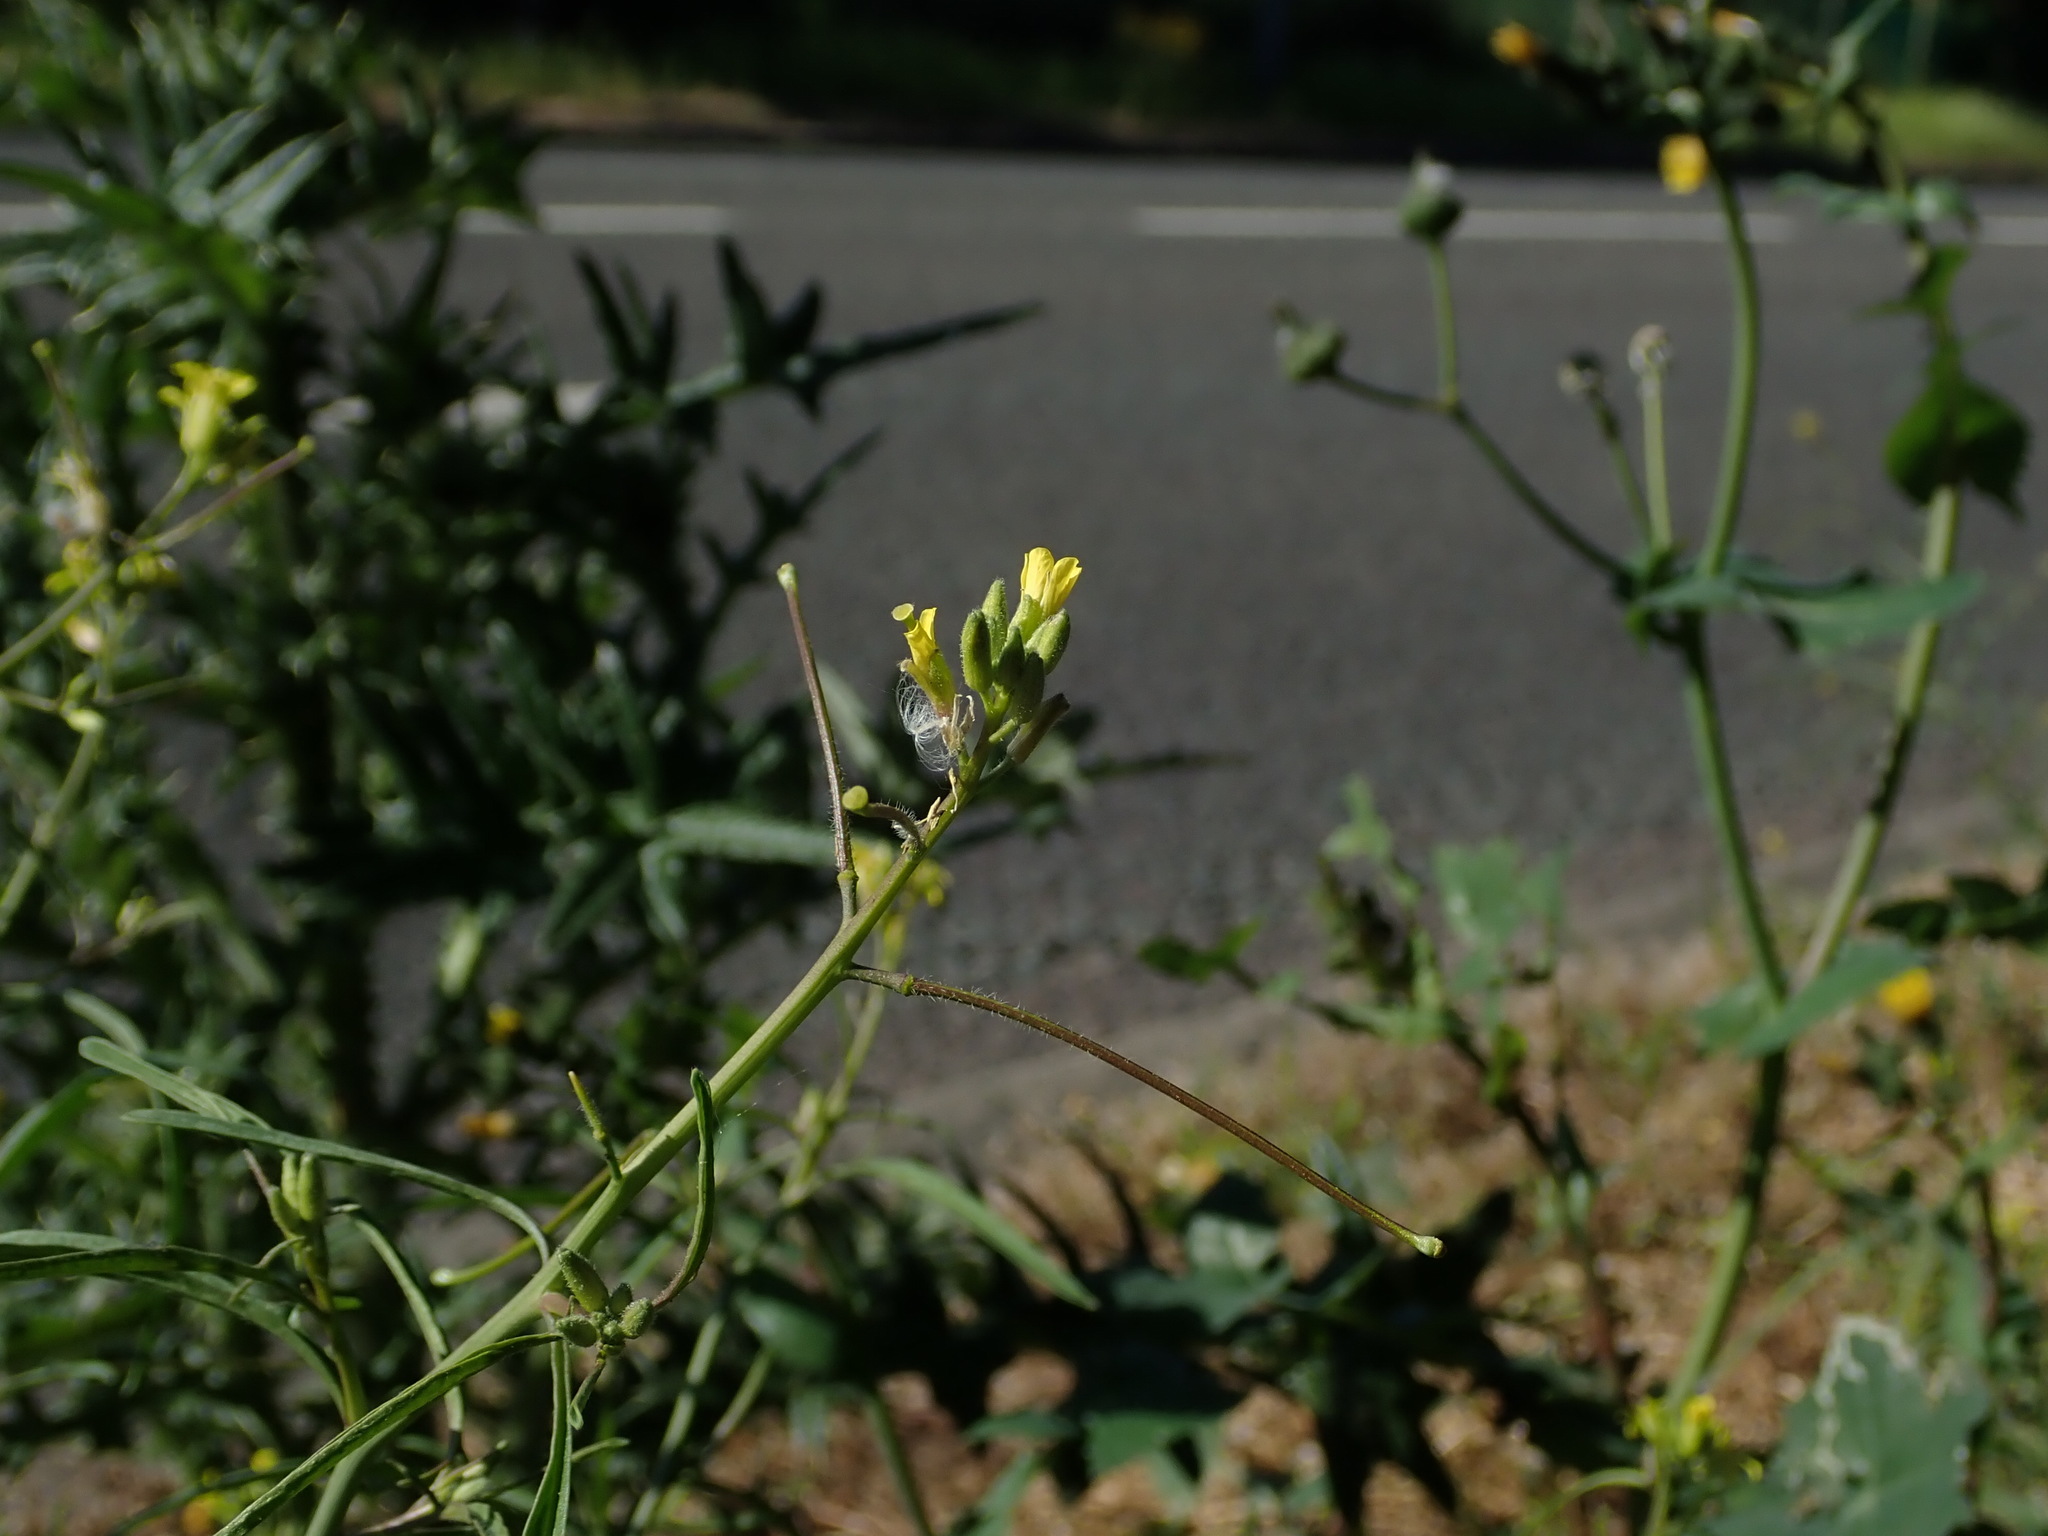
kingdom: Plantae
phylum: Tracheophyta
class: Magnoliopsida
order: Brassicales
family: Brassicaceae
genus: Sisymbrium
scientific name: Sisymbrium orientale
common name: Eastern rocket
